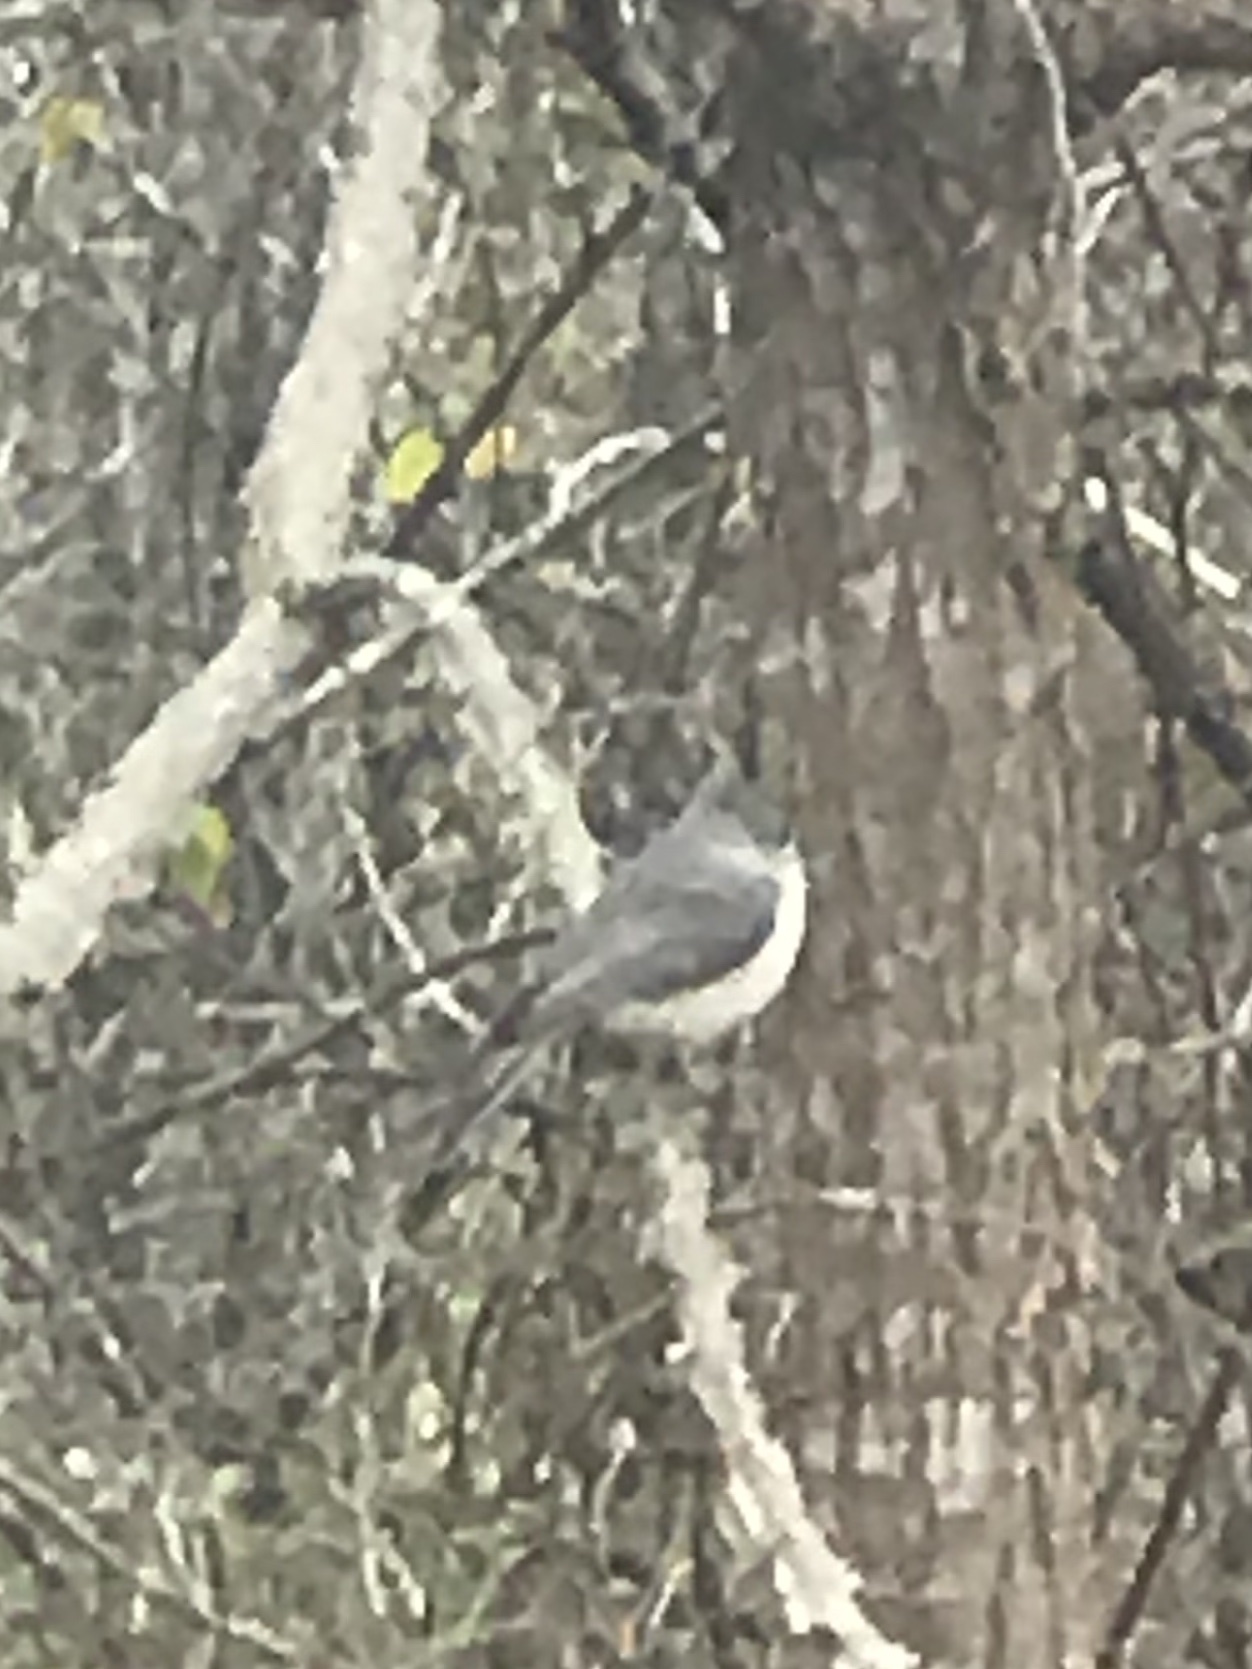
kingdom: Animalia
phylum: Chordata
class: Aves
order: Passeriformes
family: Paridae
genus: Baeolophus
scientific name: Baeolophus bicolor
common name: Tufted titmouse
